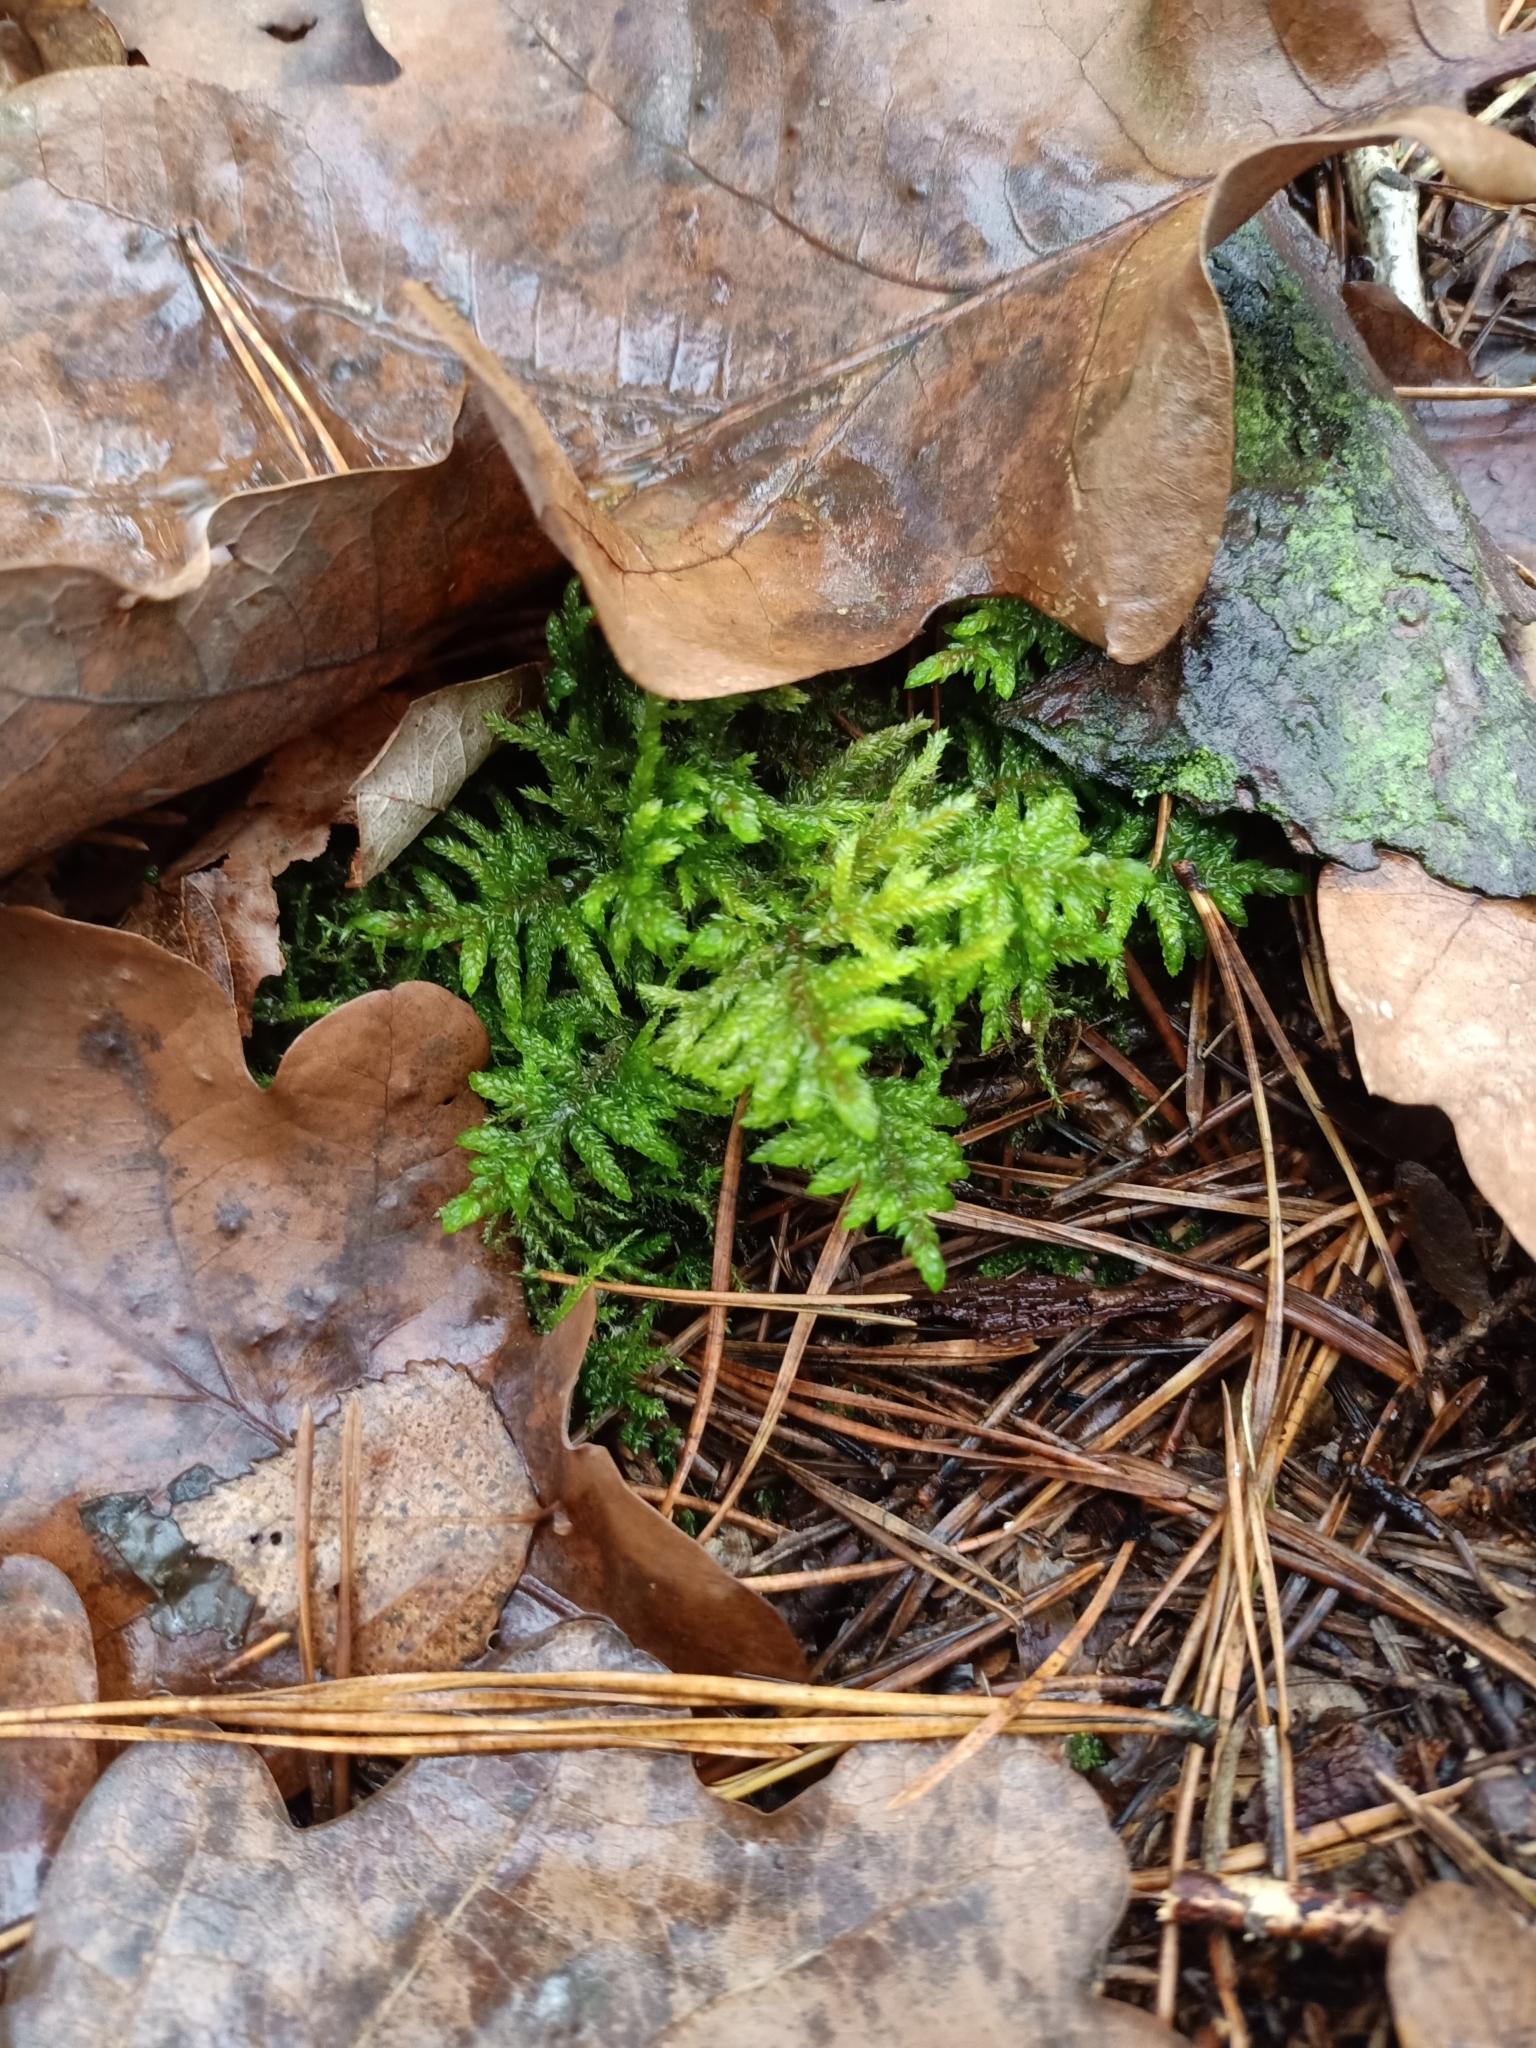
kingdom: Plantae
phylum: Bryophyta
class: Bryopsida
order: Hypnales
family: Hylocomiaceae
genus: Pleurozium
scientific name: Pleurozium schreberi
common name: Red-stemmed feather moss
